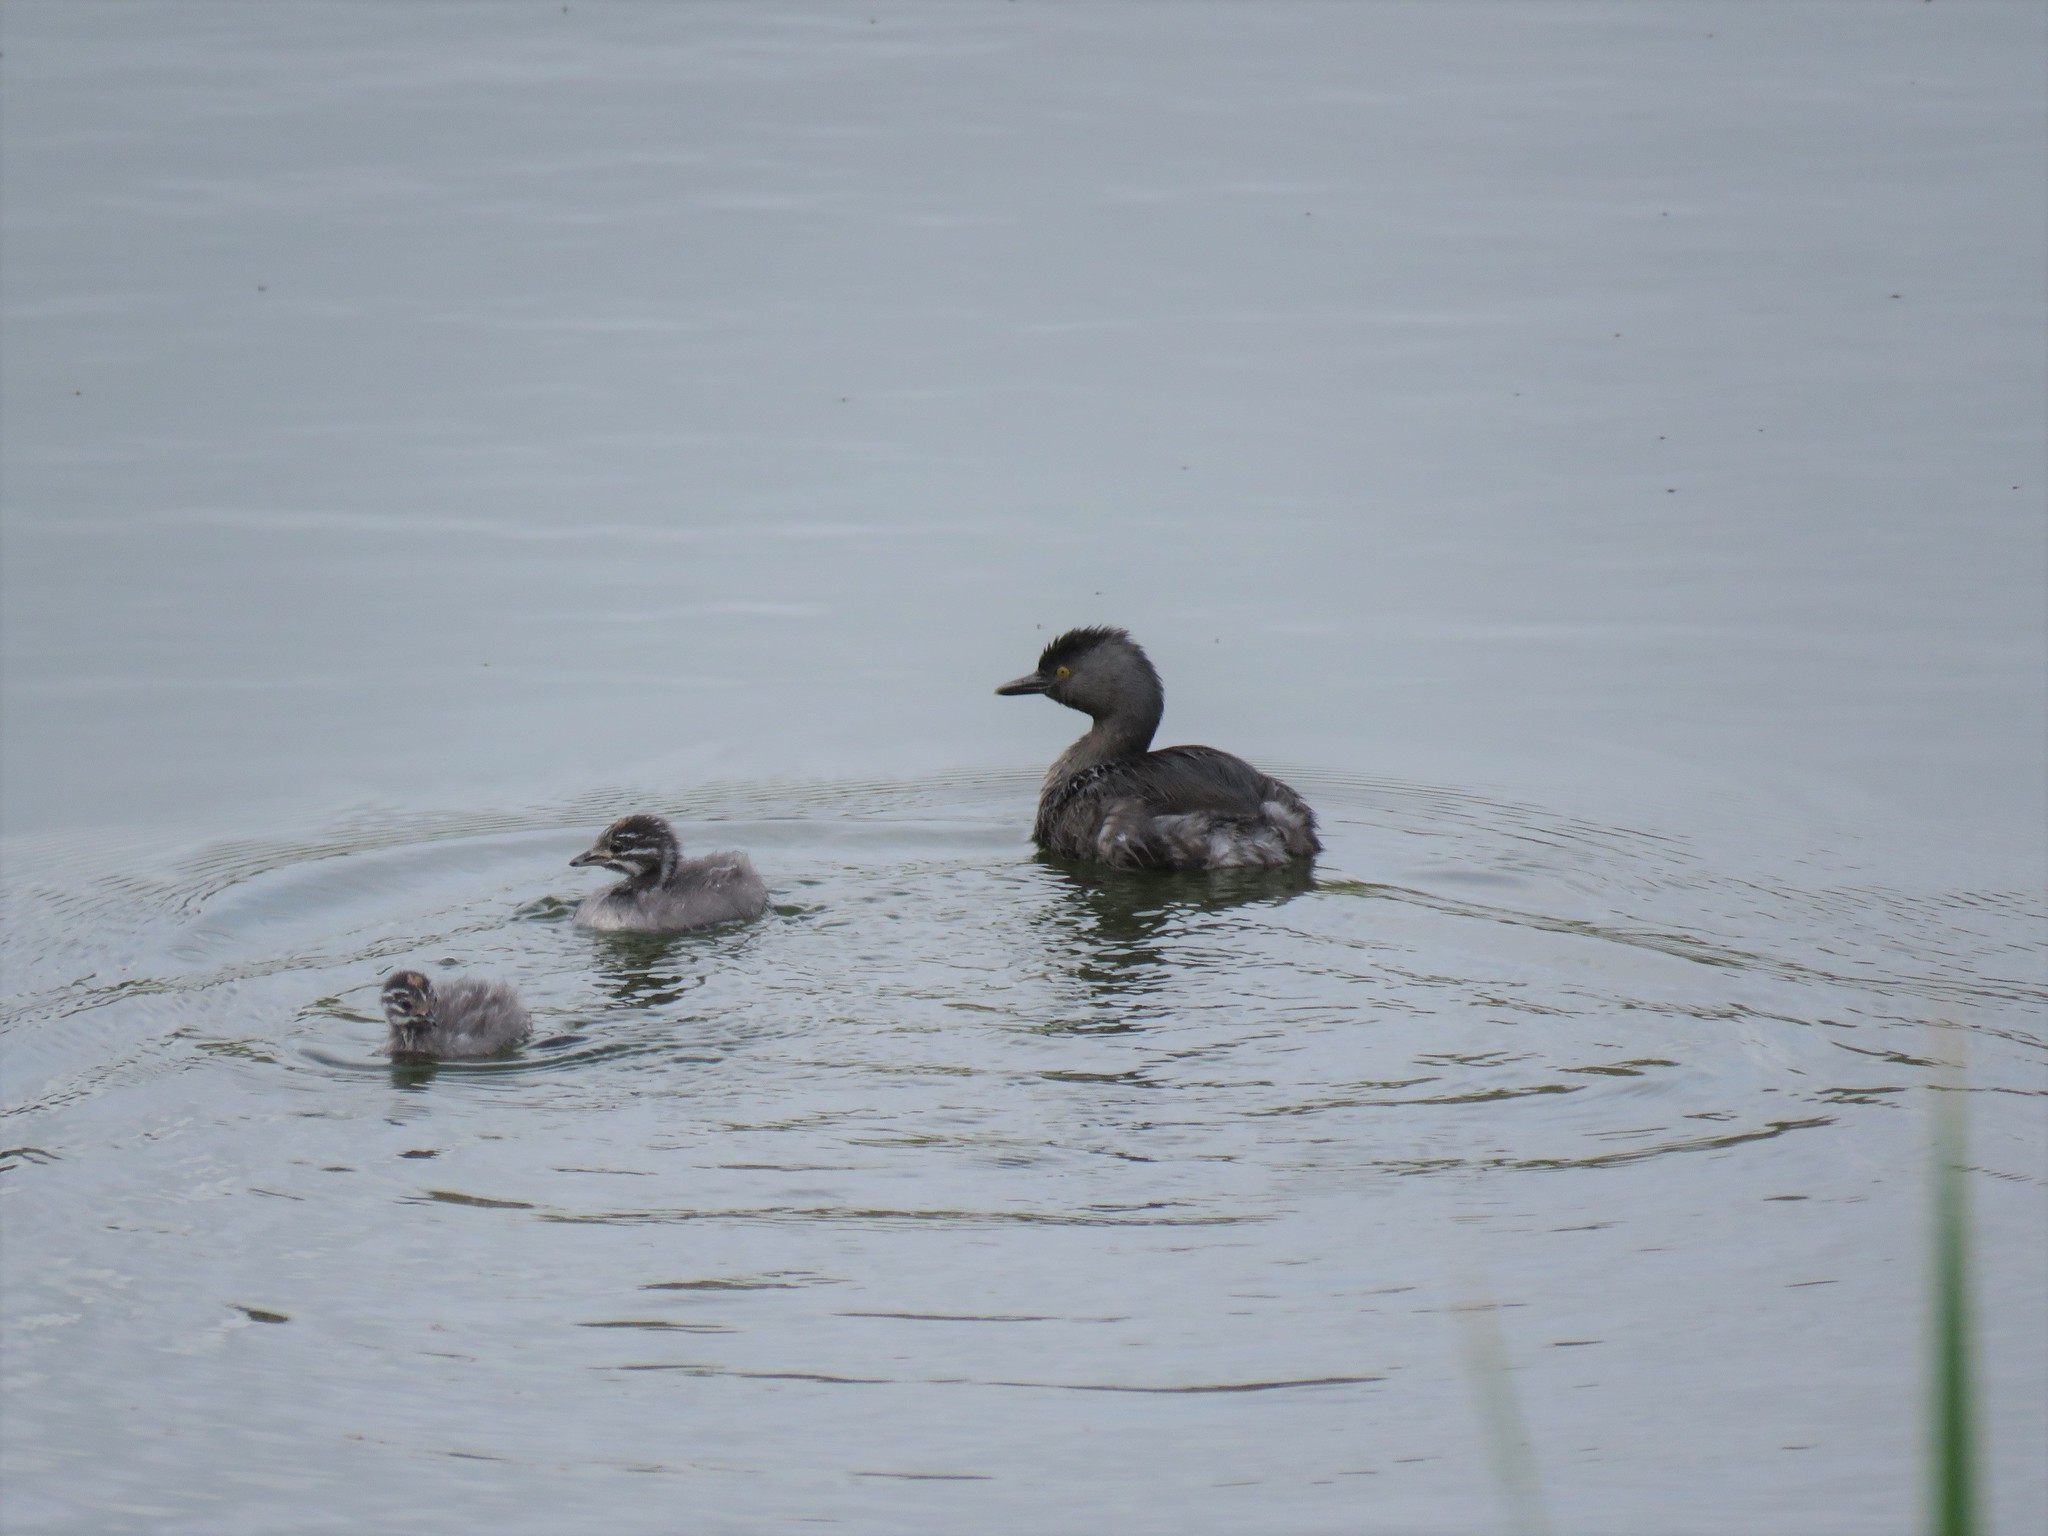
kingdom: Animalia
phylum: Chordata
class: Aves
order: Podicipediformes
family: Podicipedidae
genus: Tachybaptus
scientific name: Tachybaptus dominicus
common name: Least grebe
